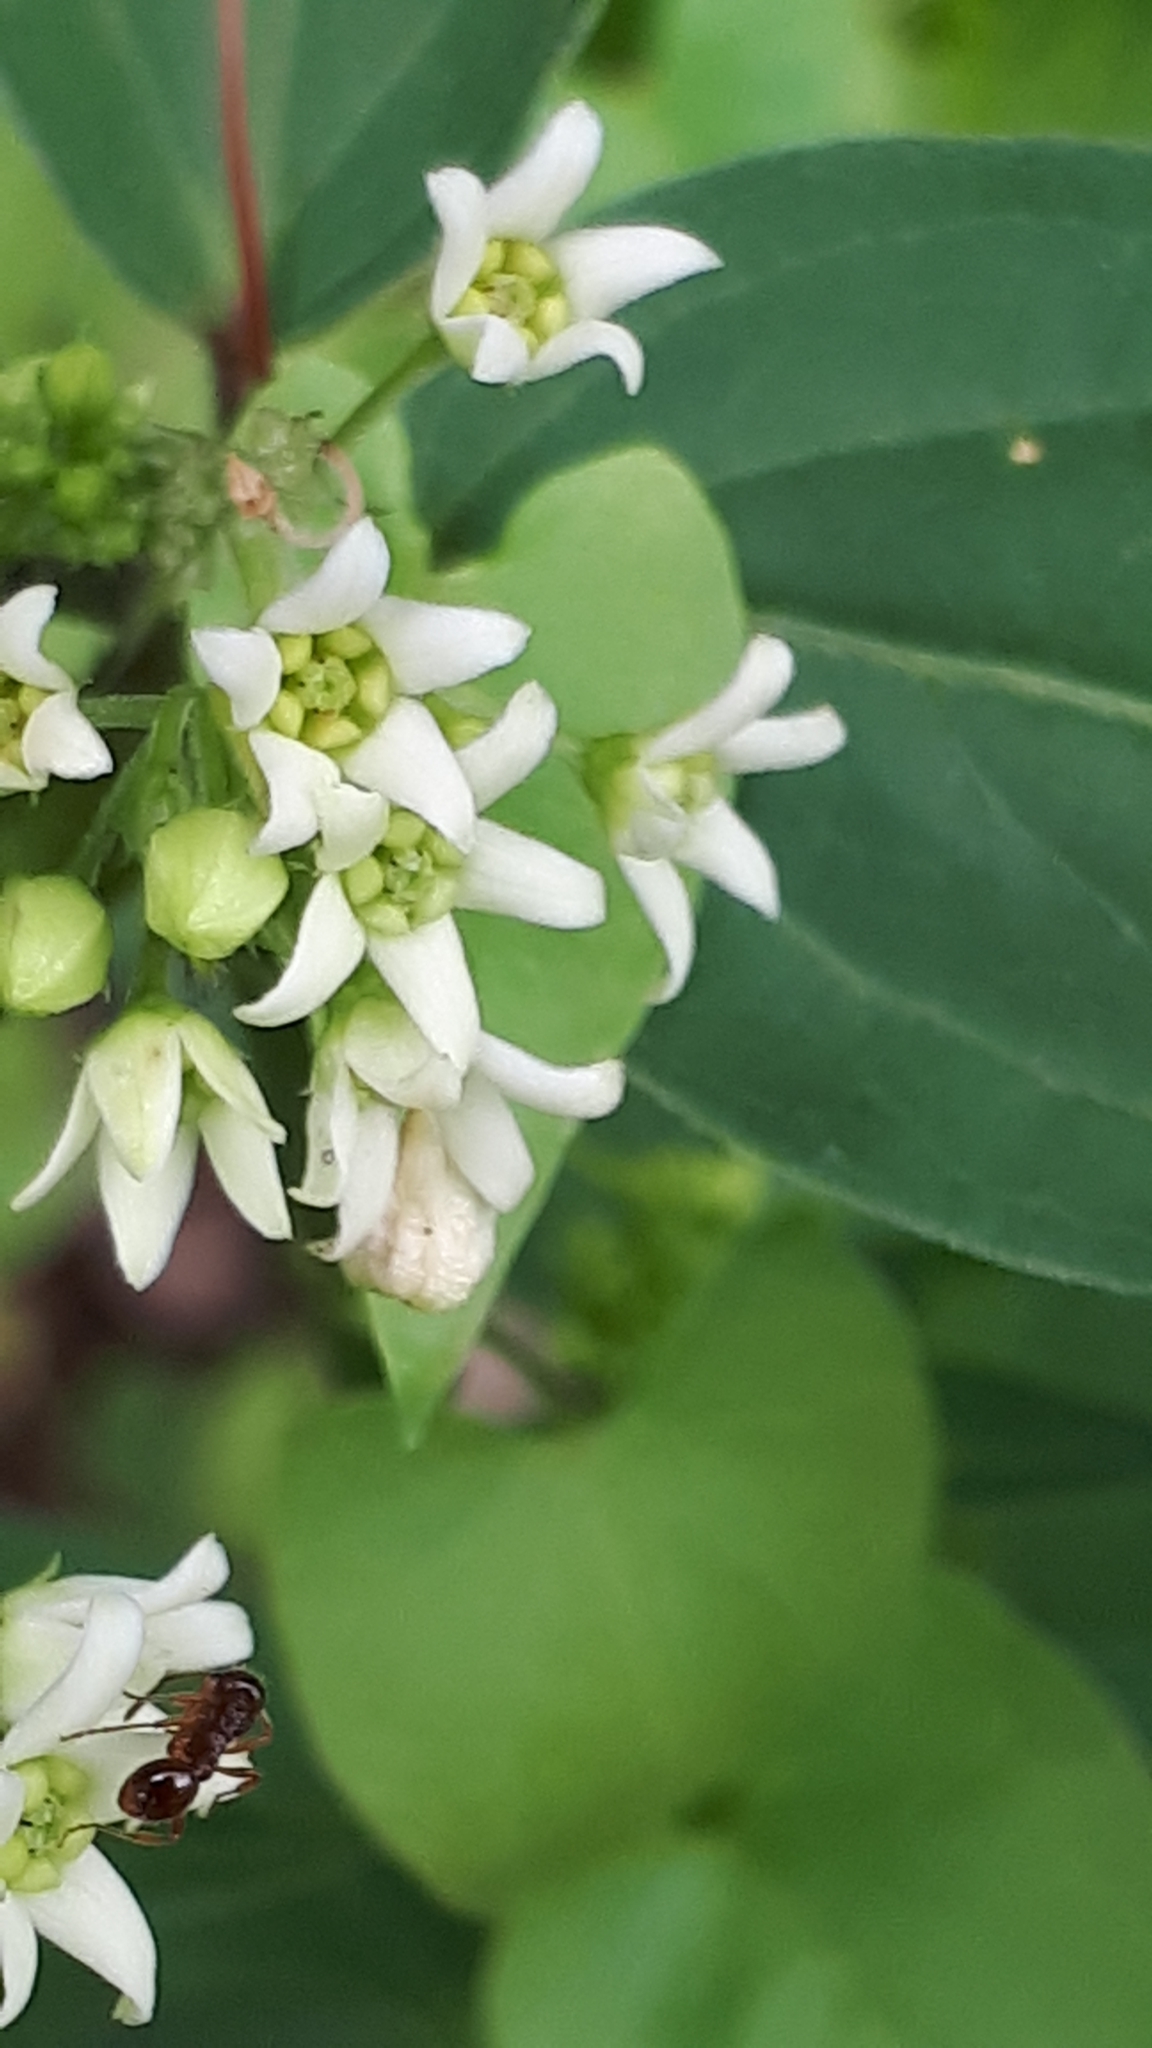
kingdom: Plantae
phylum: Tracheophyta
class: Magnoliopsida
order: Gentianales
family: Apocynaceae
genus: Vincetoxicum
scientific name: Vincetoxicum hirundinaria
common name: White swallowwort
